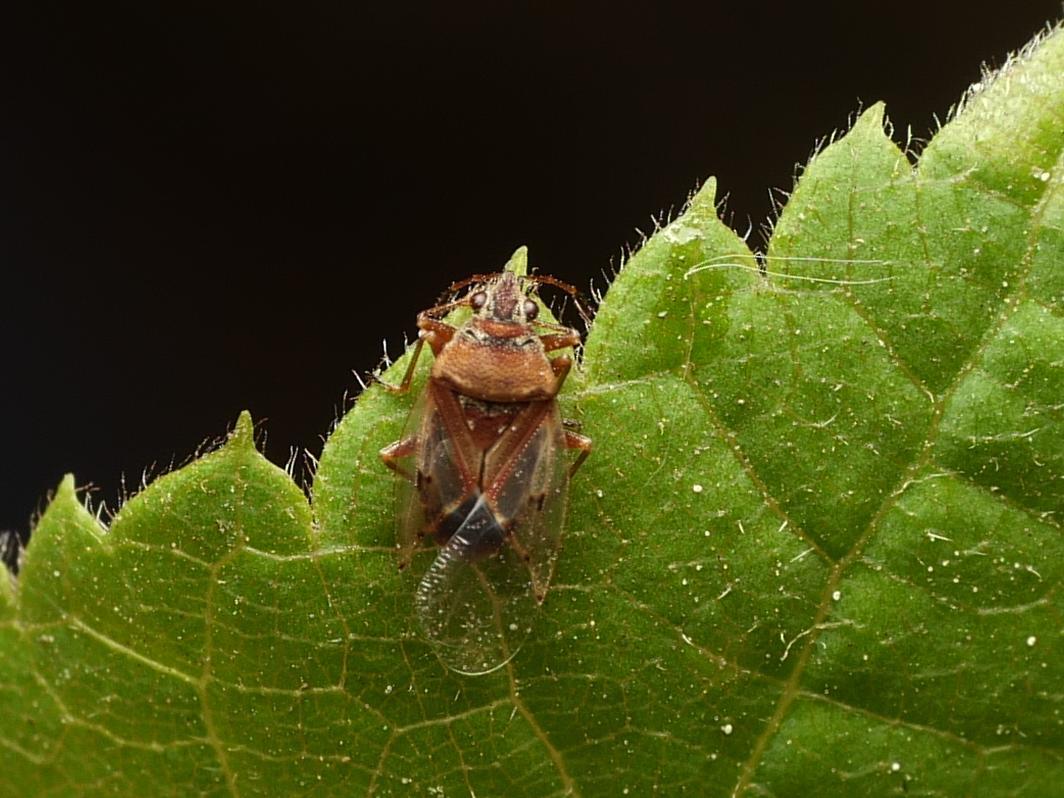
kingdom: Animalia
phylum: Arthropoda
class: Insecta
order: Hemiptera
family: Lygaeidae
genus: Kleidocerys
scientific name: Kleidocerys resedae
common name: Birch catkin bug
